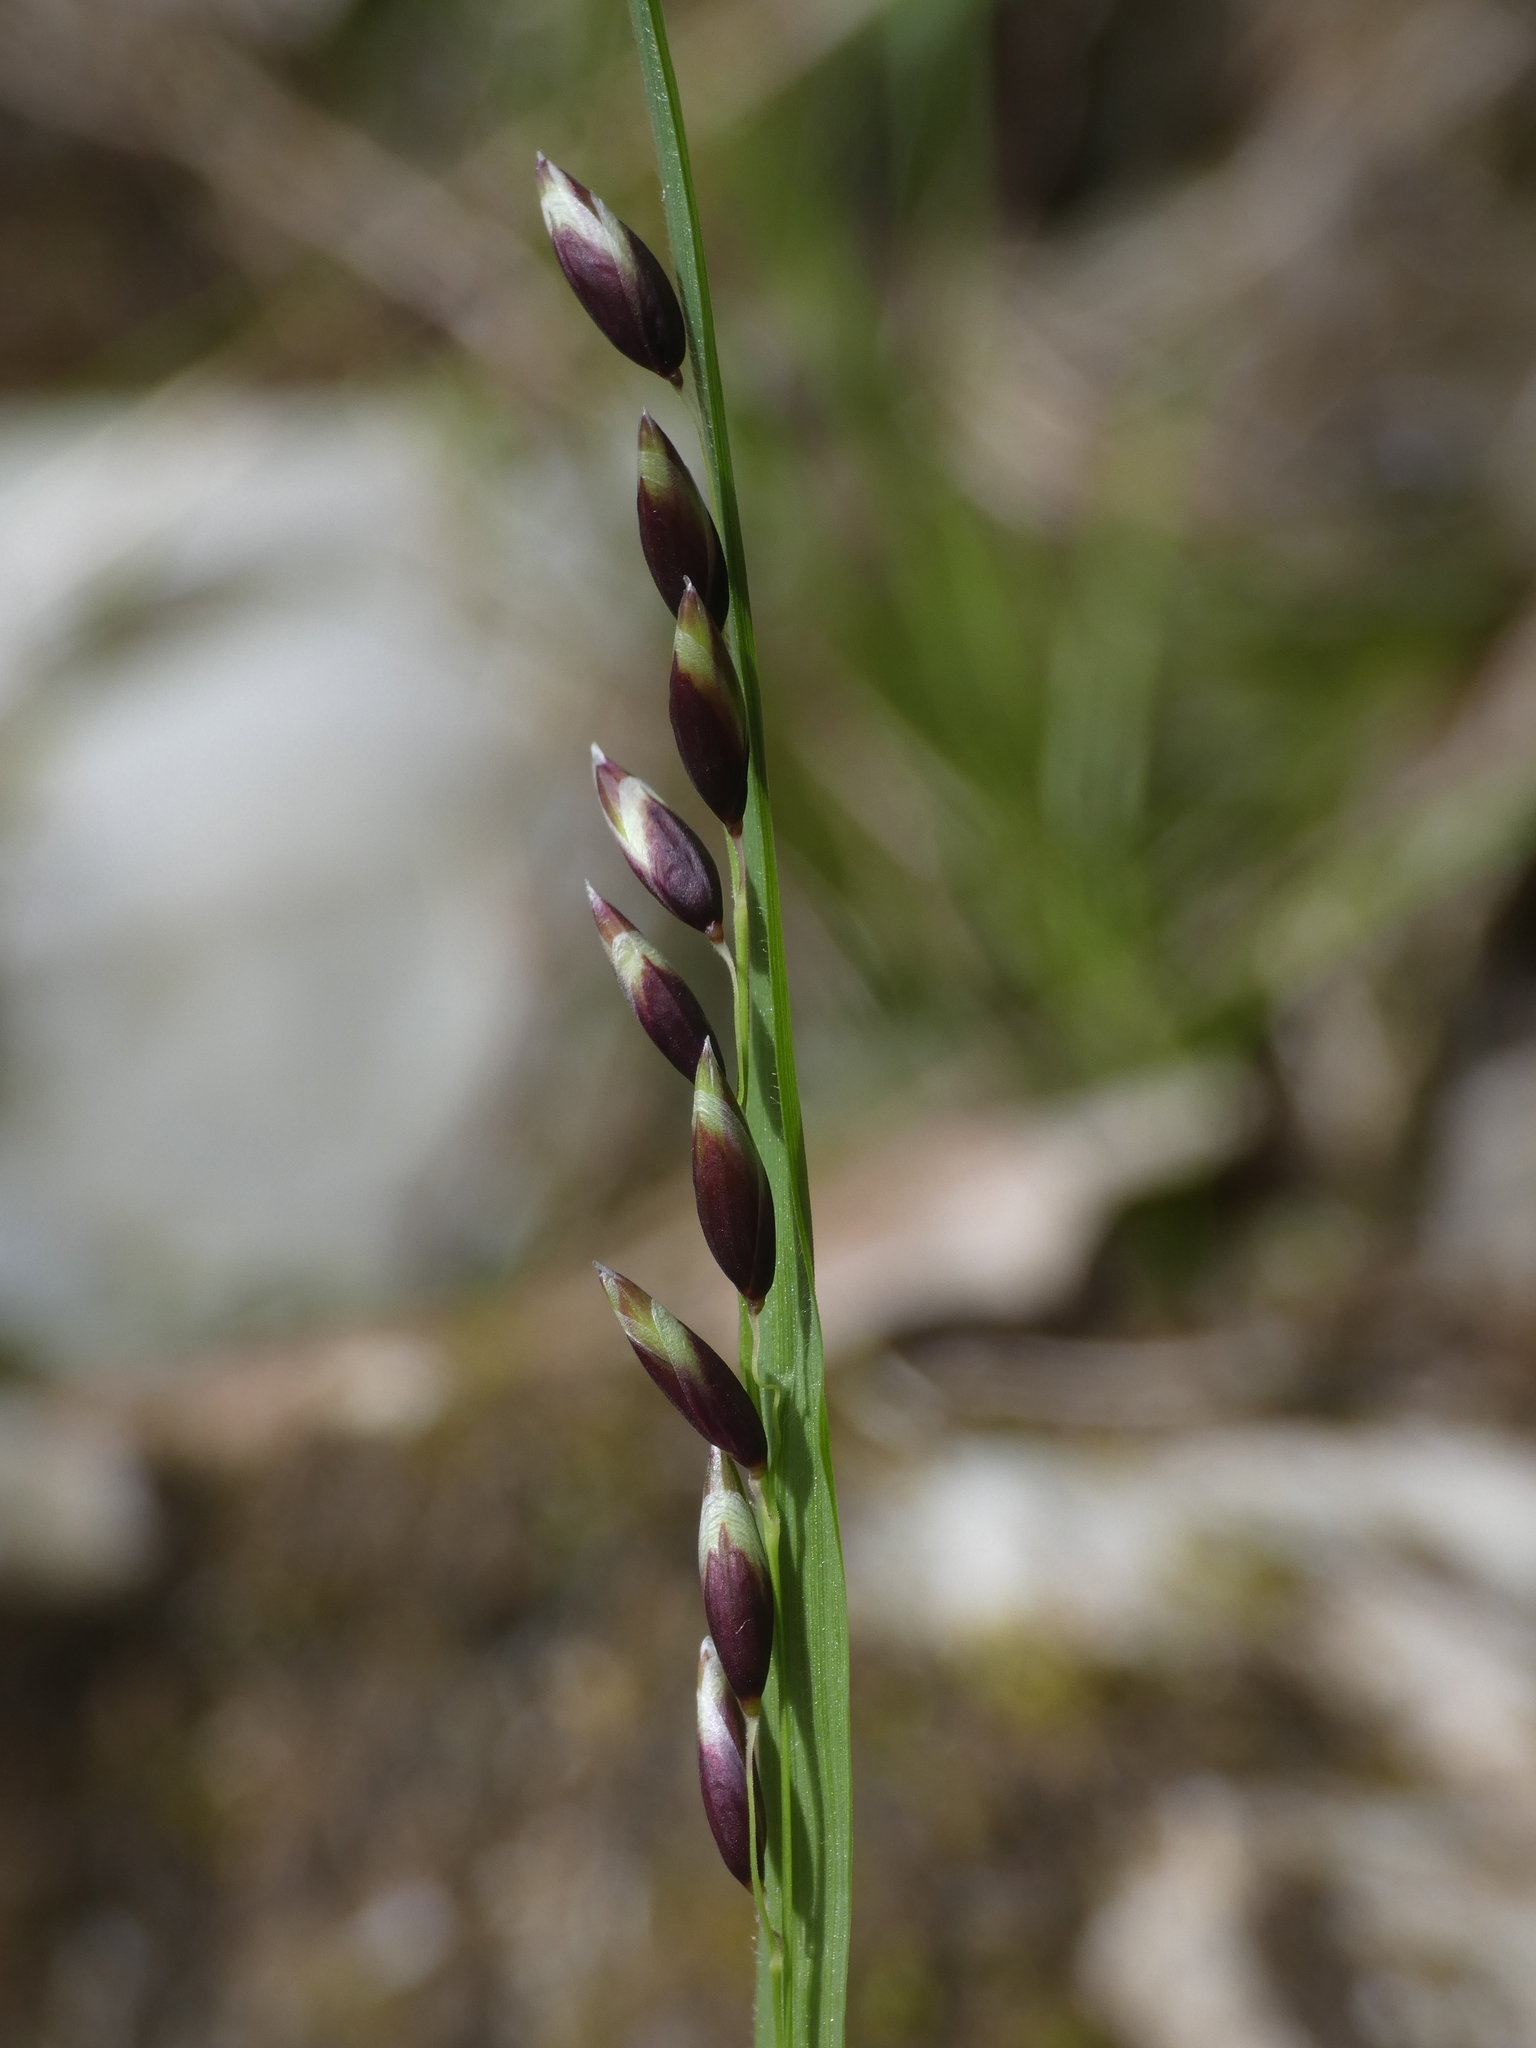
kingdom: Plantae
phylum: Tracheophyta
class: Liliopsida
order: Poales
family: Poaceae
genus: Melica
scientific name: Melica uniflora
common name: Wood melick
